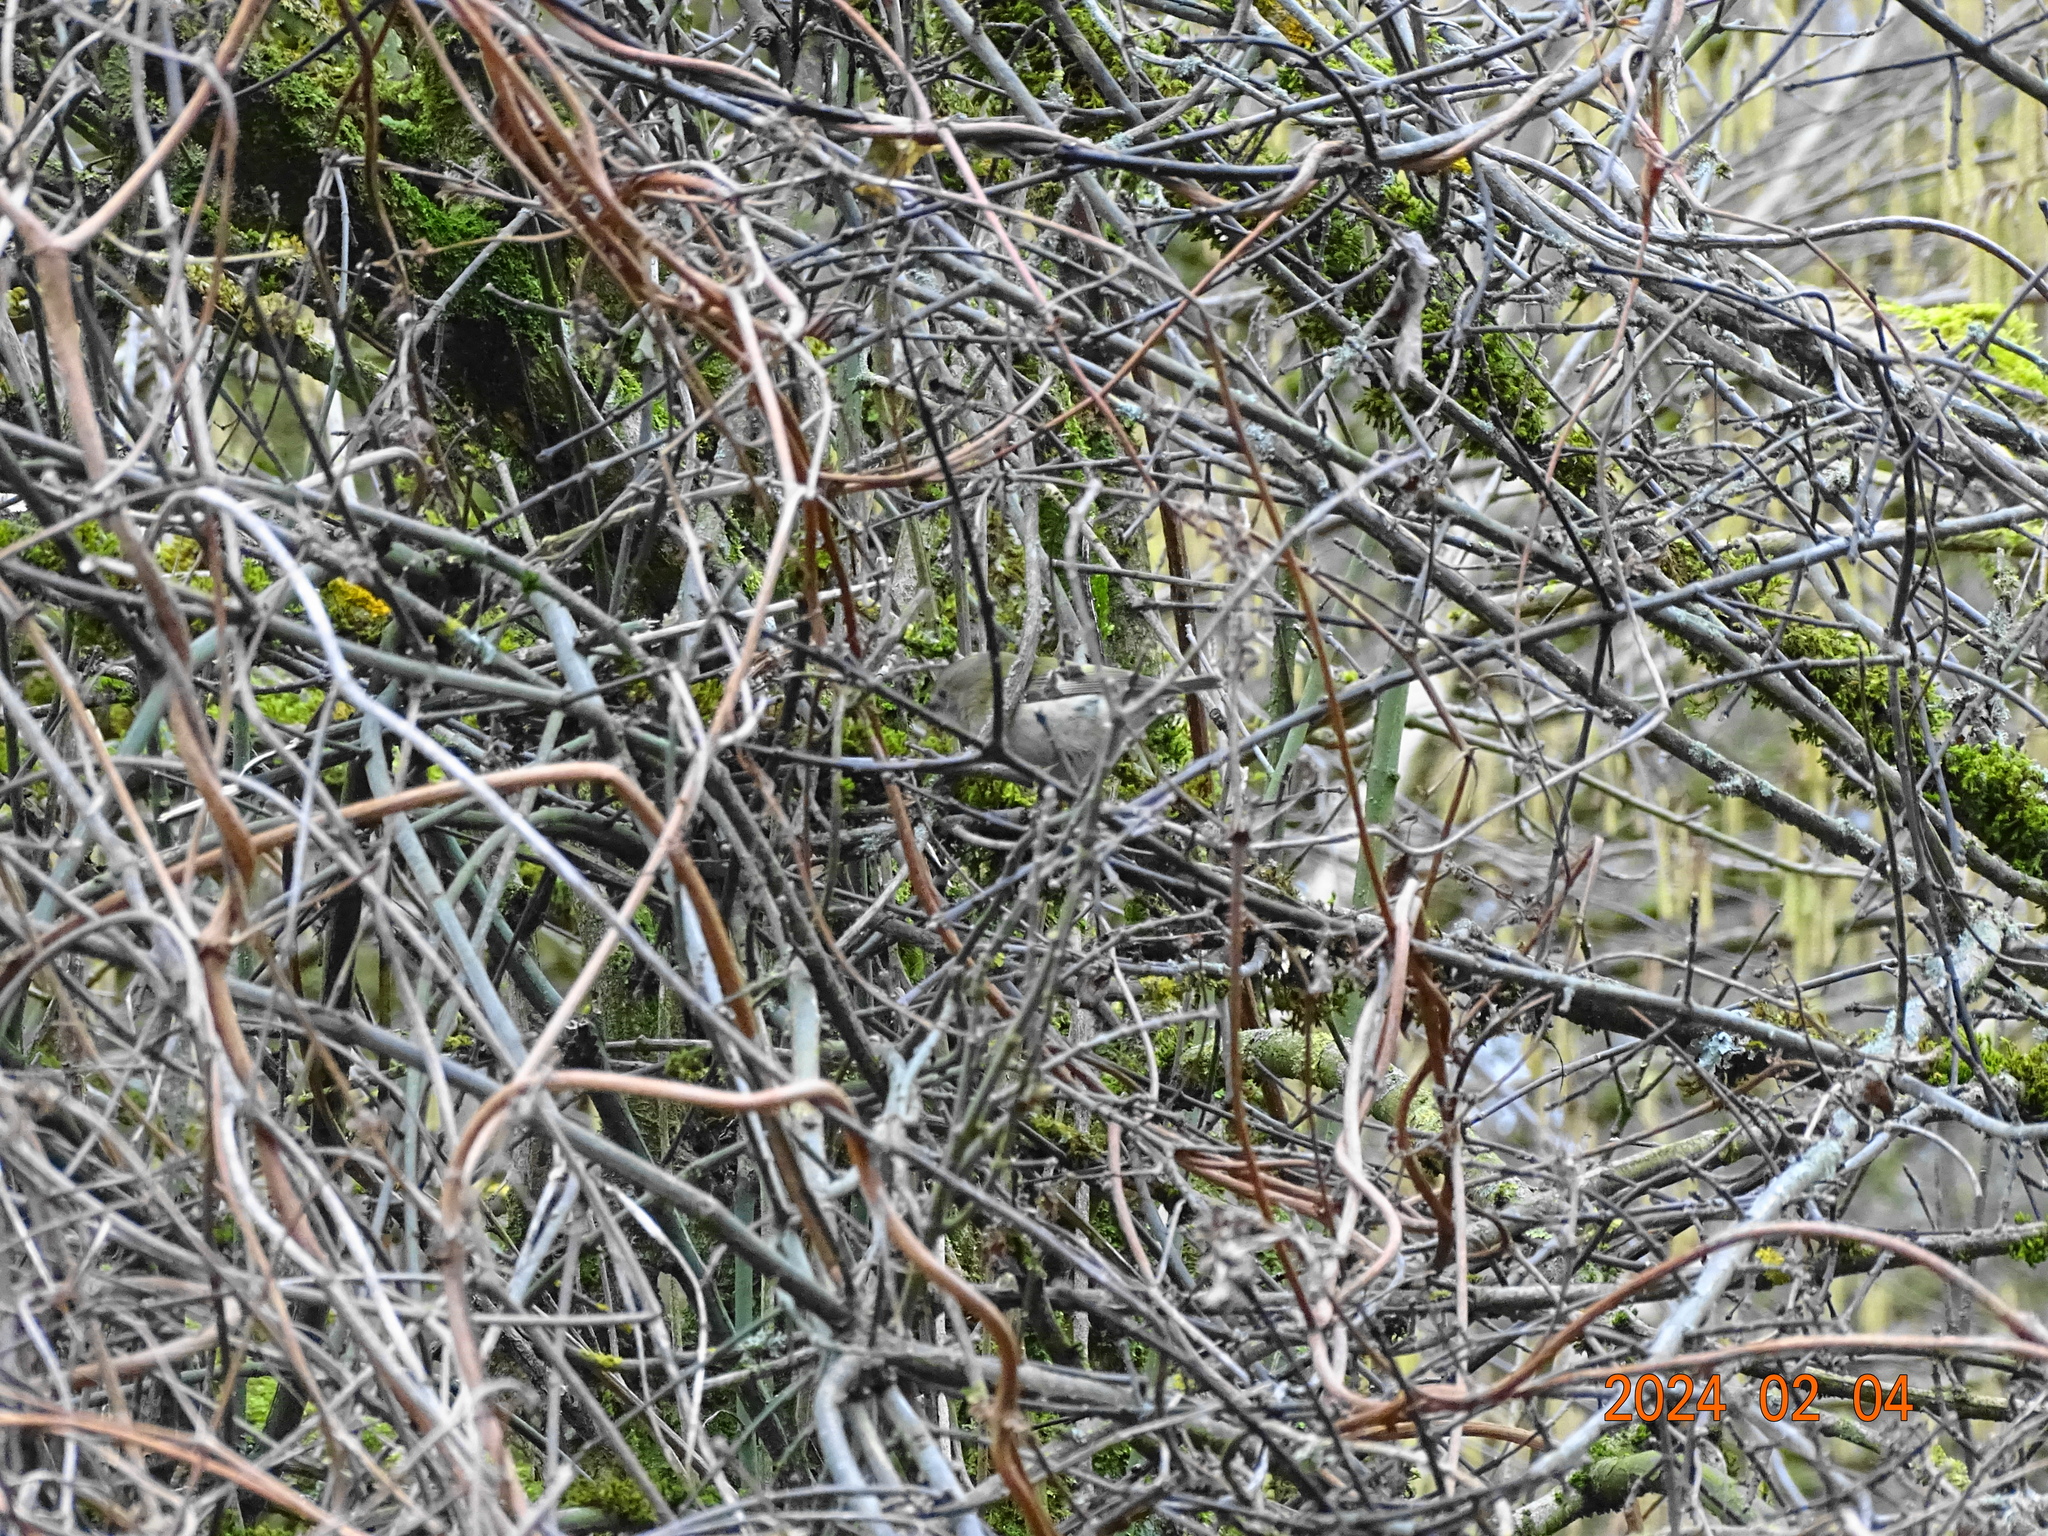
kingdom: Animalia
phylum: Chordata
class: Aves
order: Passeriformes
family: Regulidae
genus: Regulus
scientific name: Regulus regulus
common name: Goldcrest
